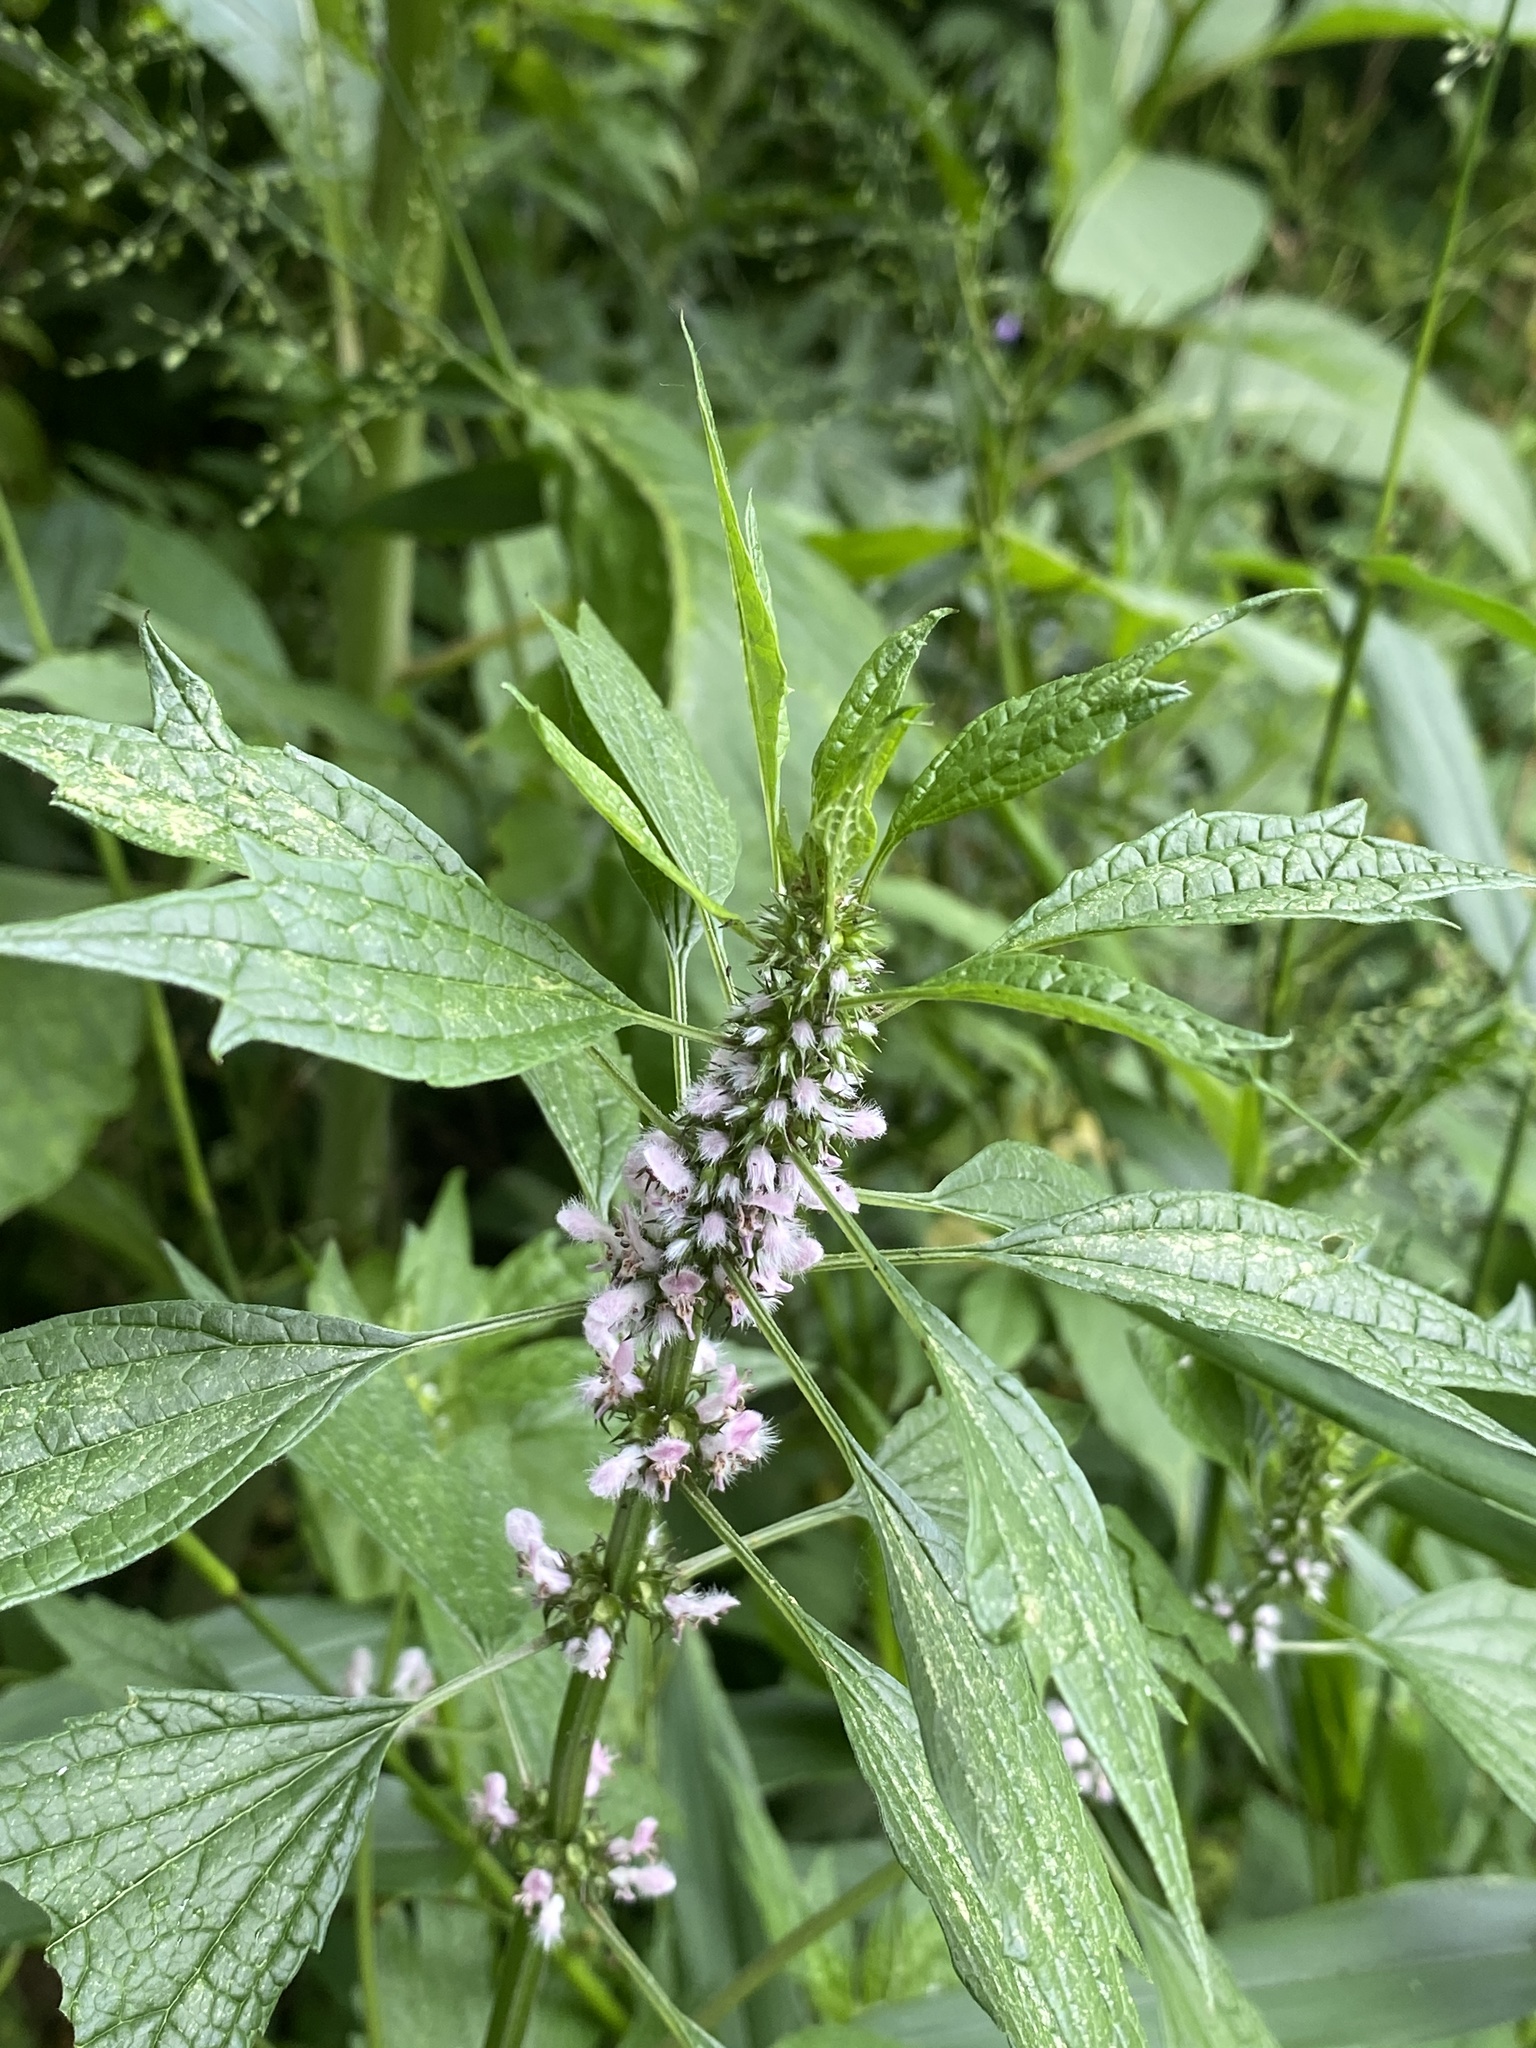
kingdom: Plantae
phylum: Tracheophyta
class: Magnoliopsida
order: Lamiales
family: Lamiaceae
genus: Leonurus
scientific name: Leonurus cardiaca
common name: Motherwort
